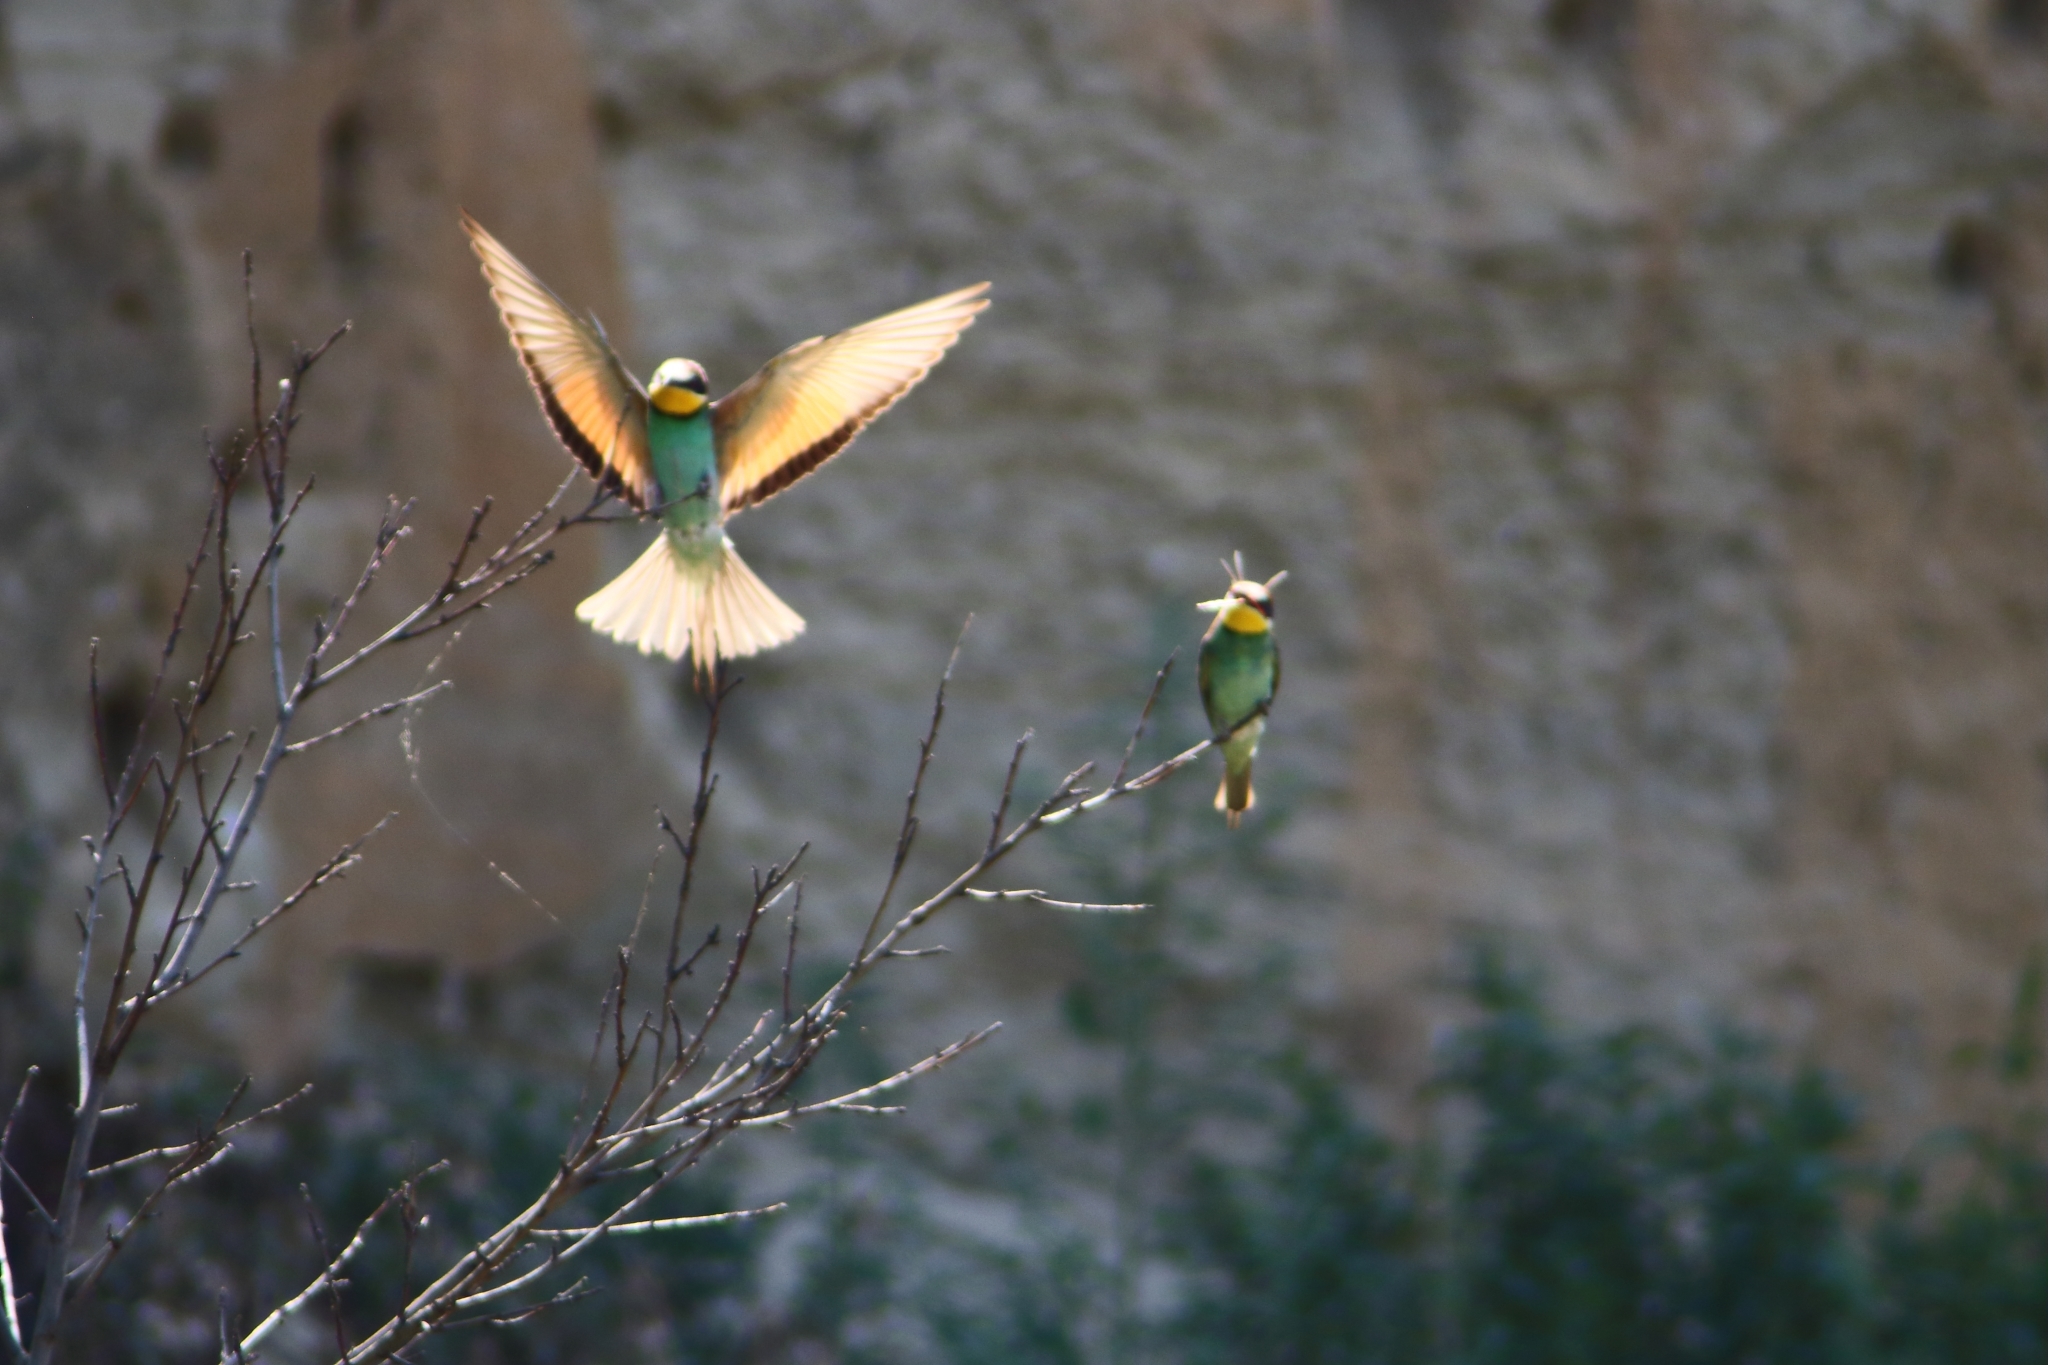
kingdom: Animalia
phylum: Chordata
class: Aves
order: Coraciiformes
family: Meropidae
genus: Merops
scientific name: Merops apiaster
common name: European bee-eater
